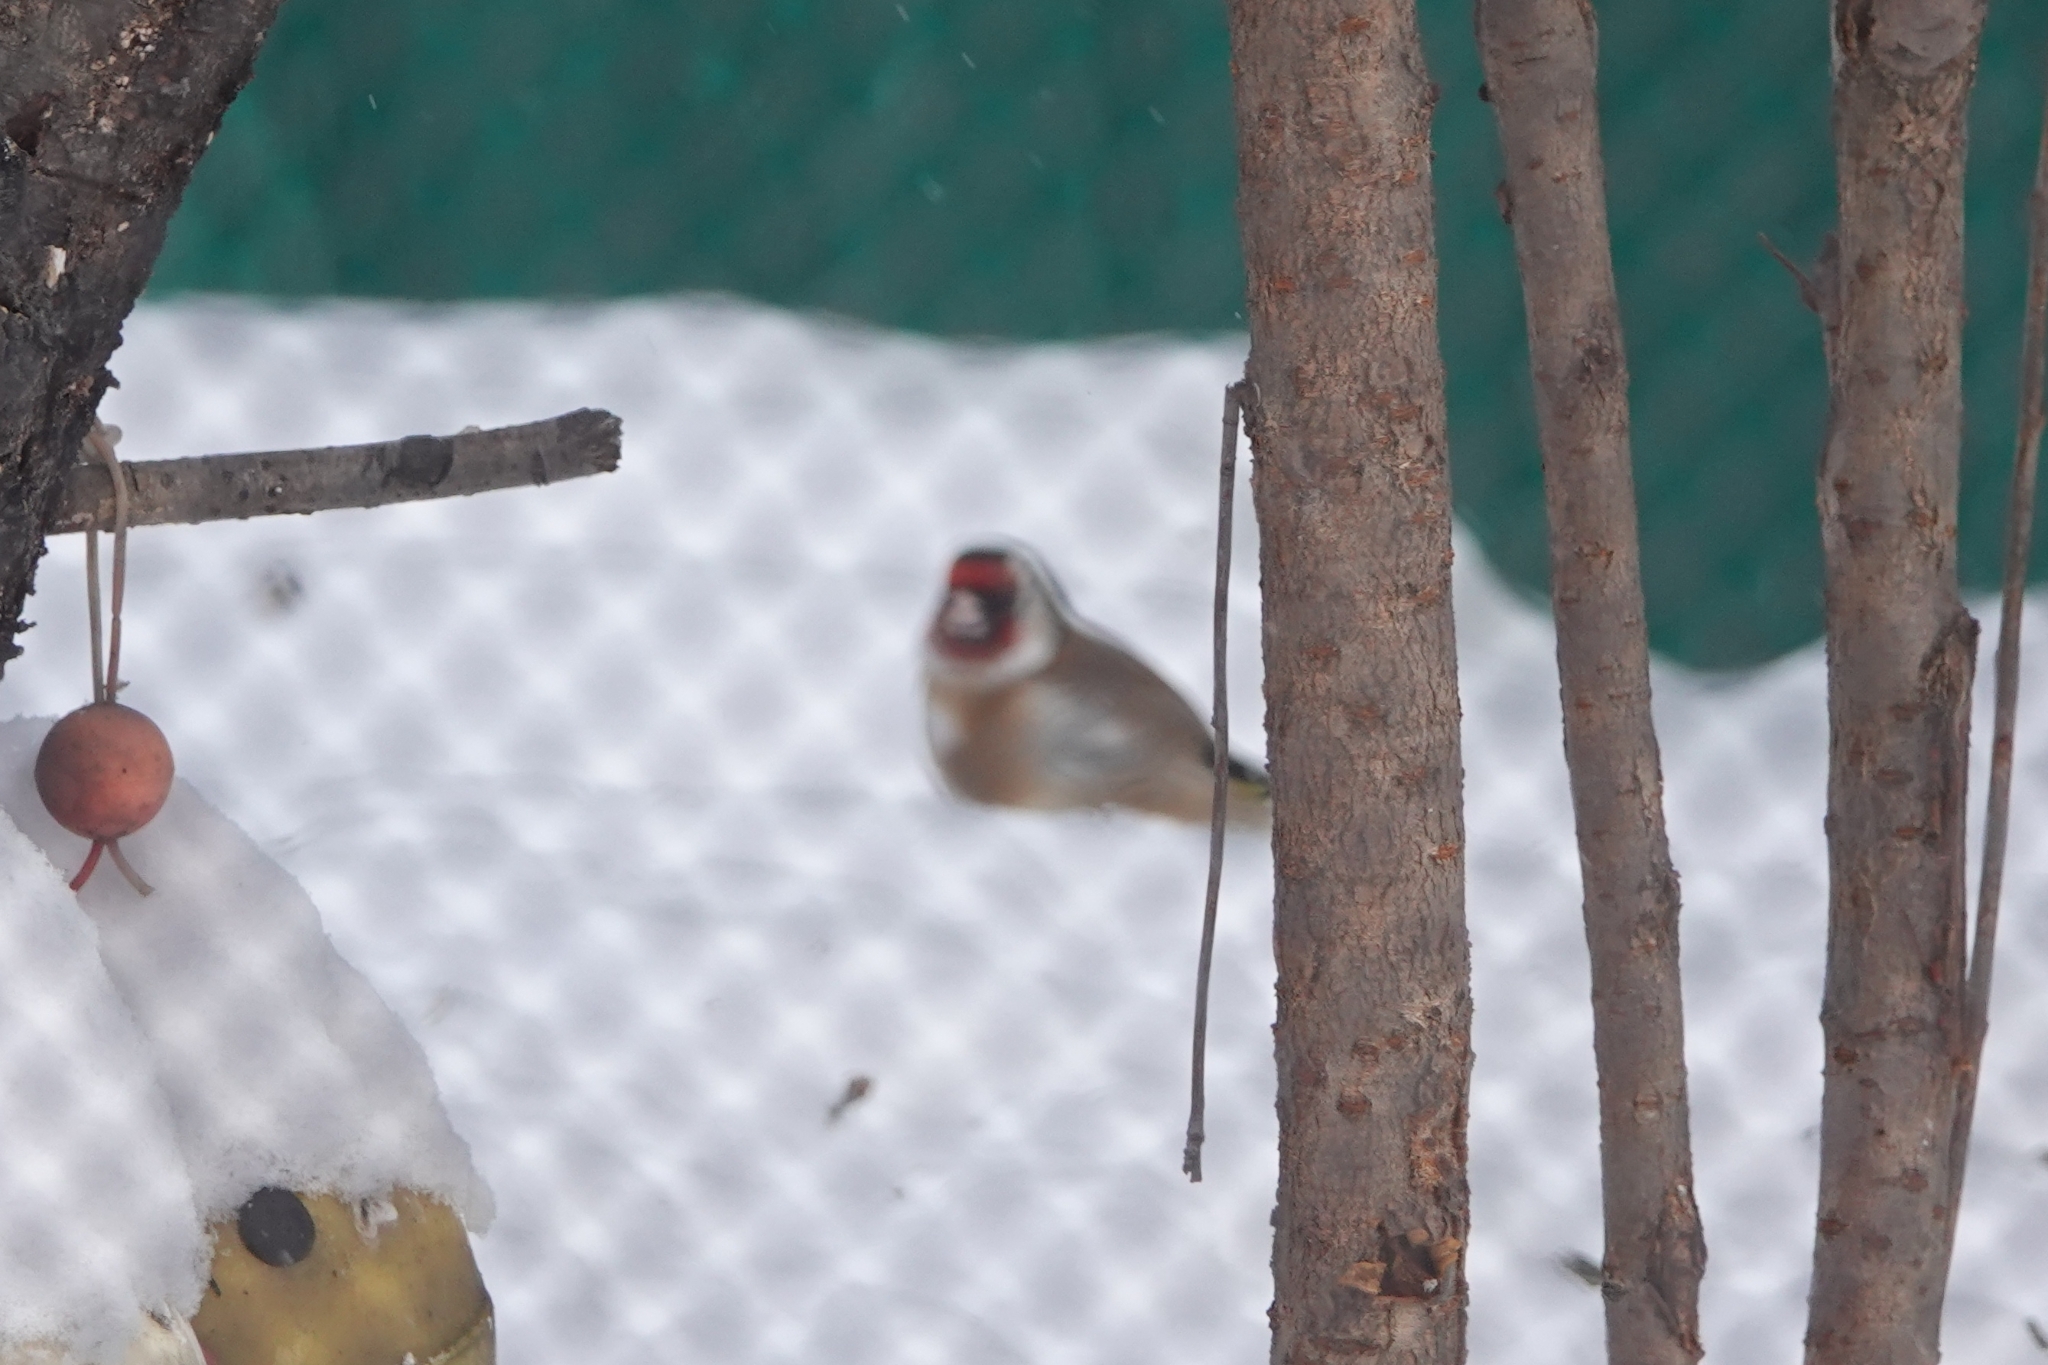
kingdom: Animalia
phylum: Chordata
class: Aves
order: Passeriformes
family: Fringillidae
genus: Carduelis
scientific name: Carduelis carduelis
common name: European goldfinch
